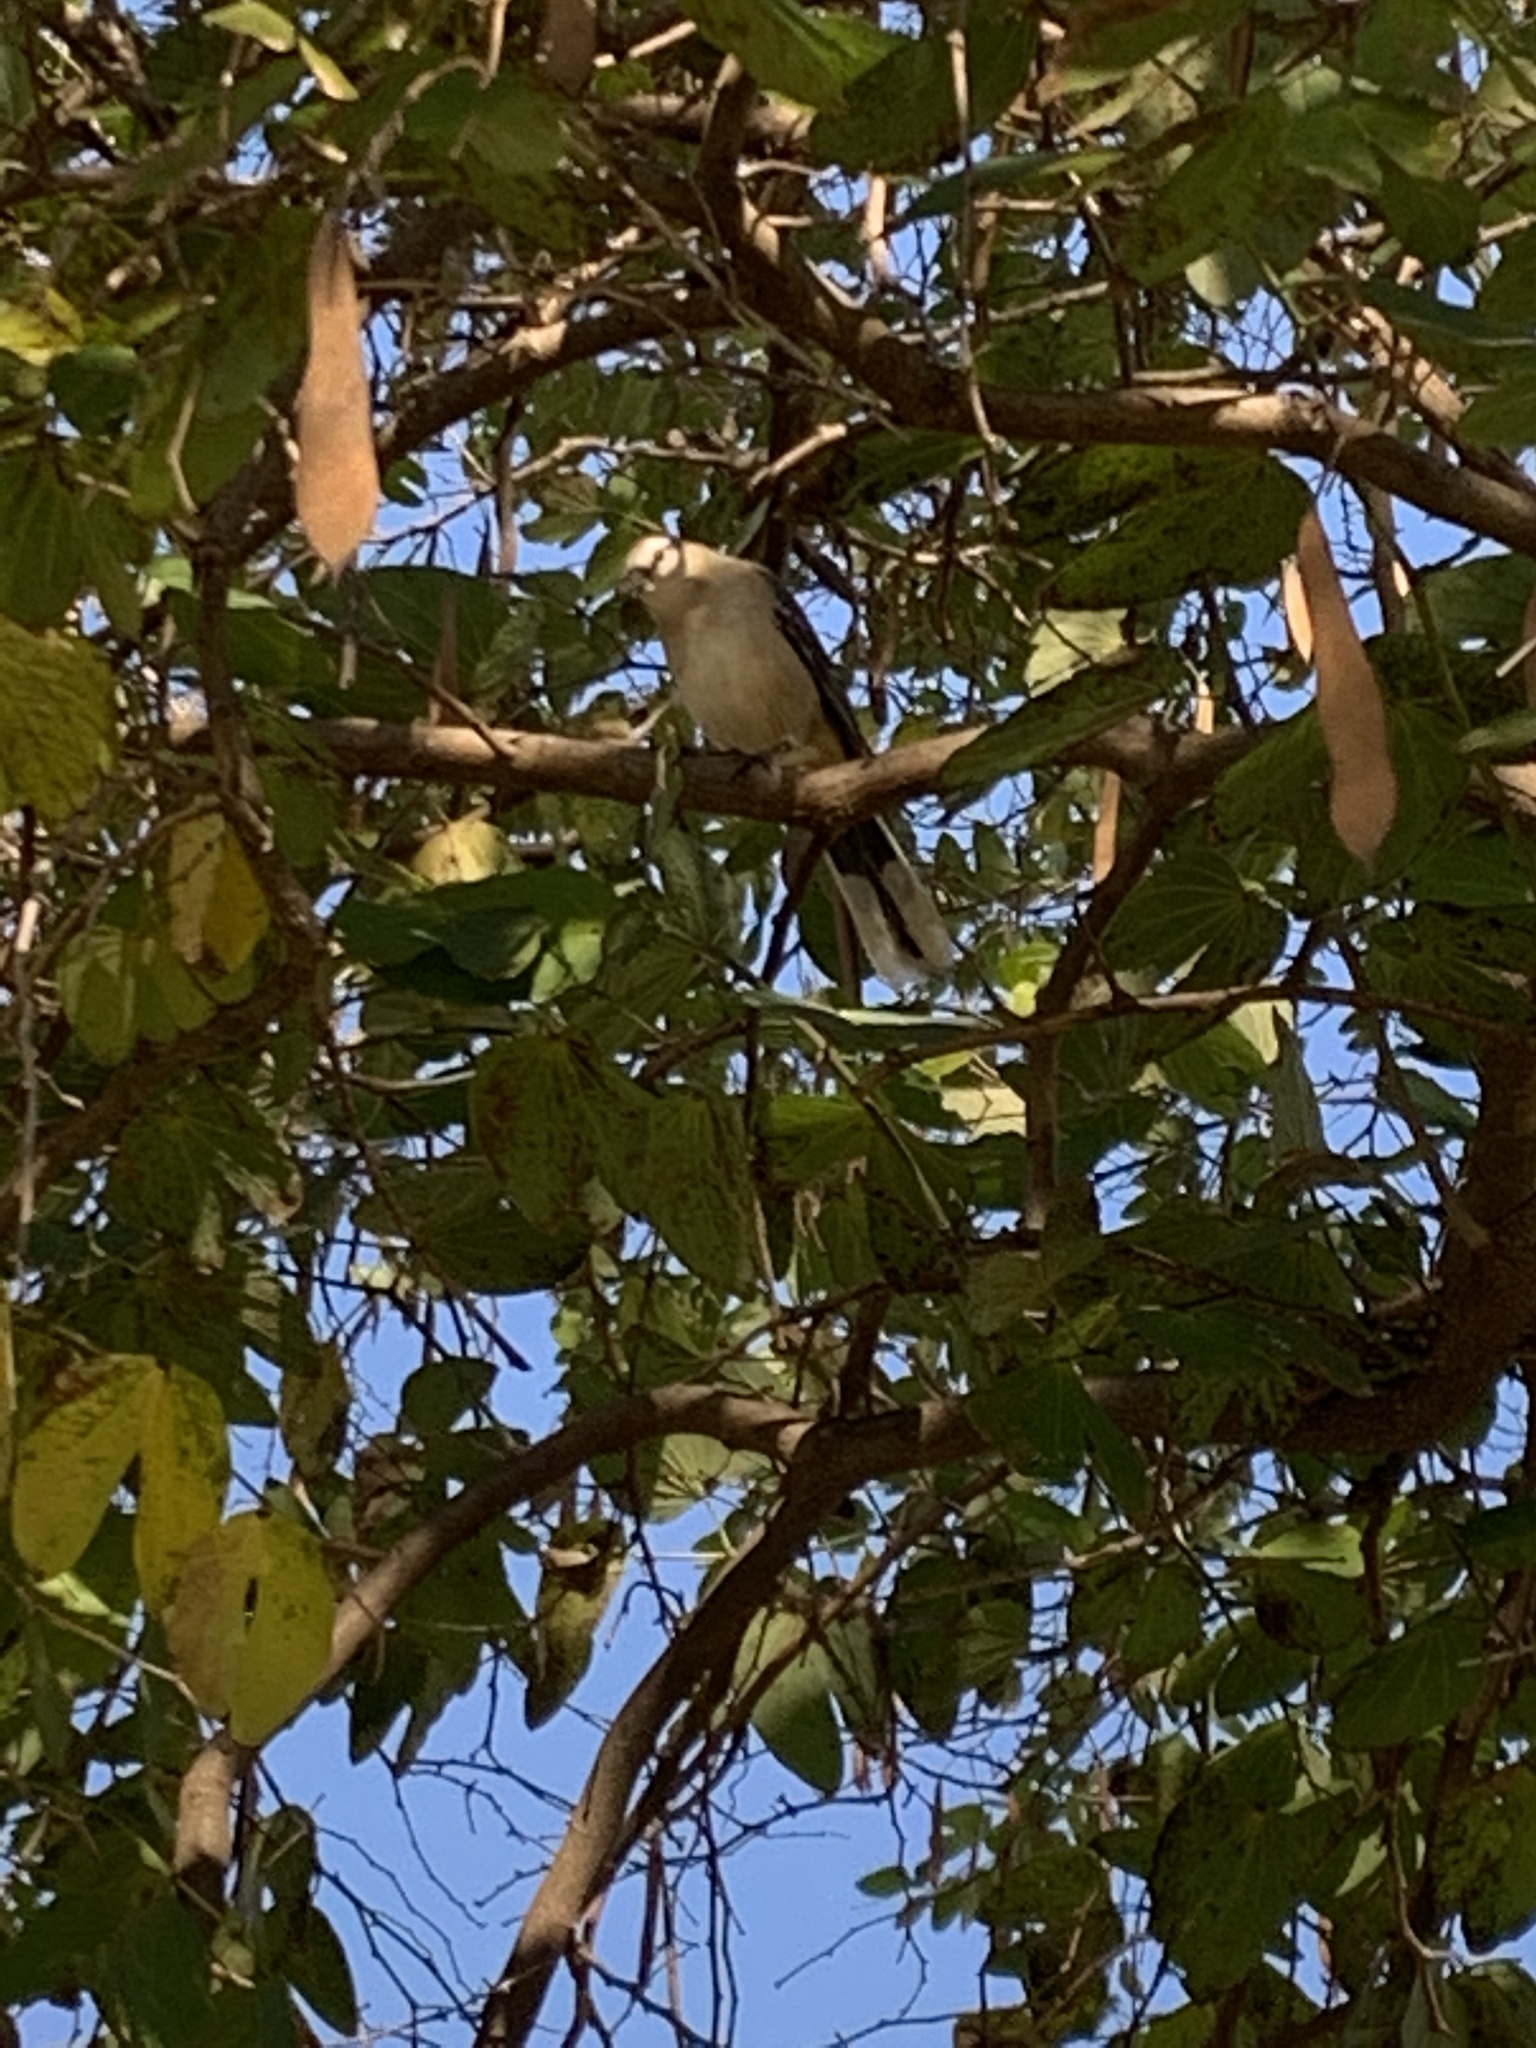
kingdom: Animalia
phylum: Chordata
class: Aves
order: Passeriformes
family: Mimidae
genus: Mimus
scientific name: Mimus saturninus
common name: Chalk-browed mockingbird
